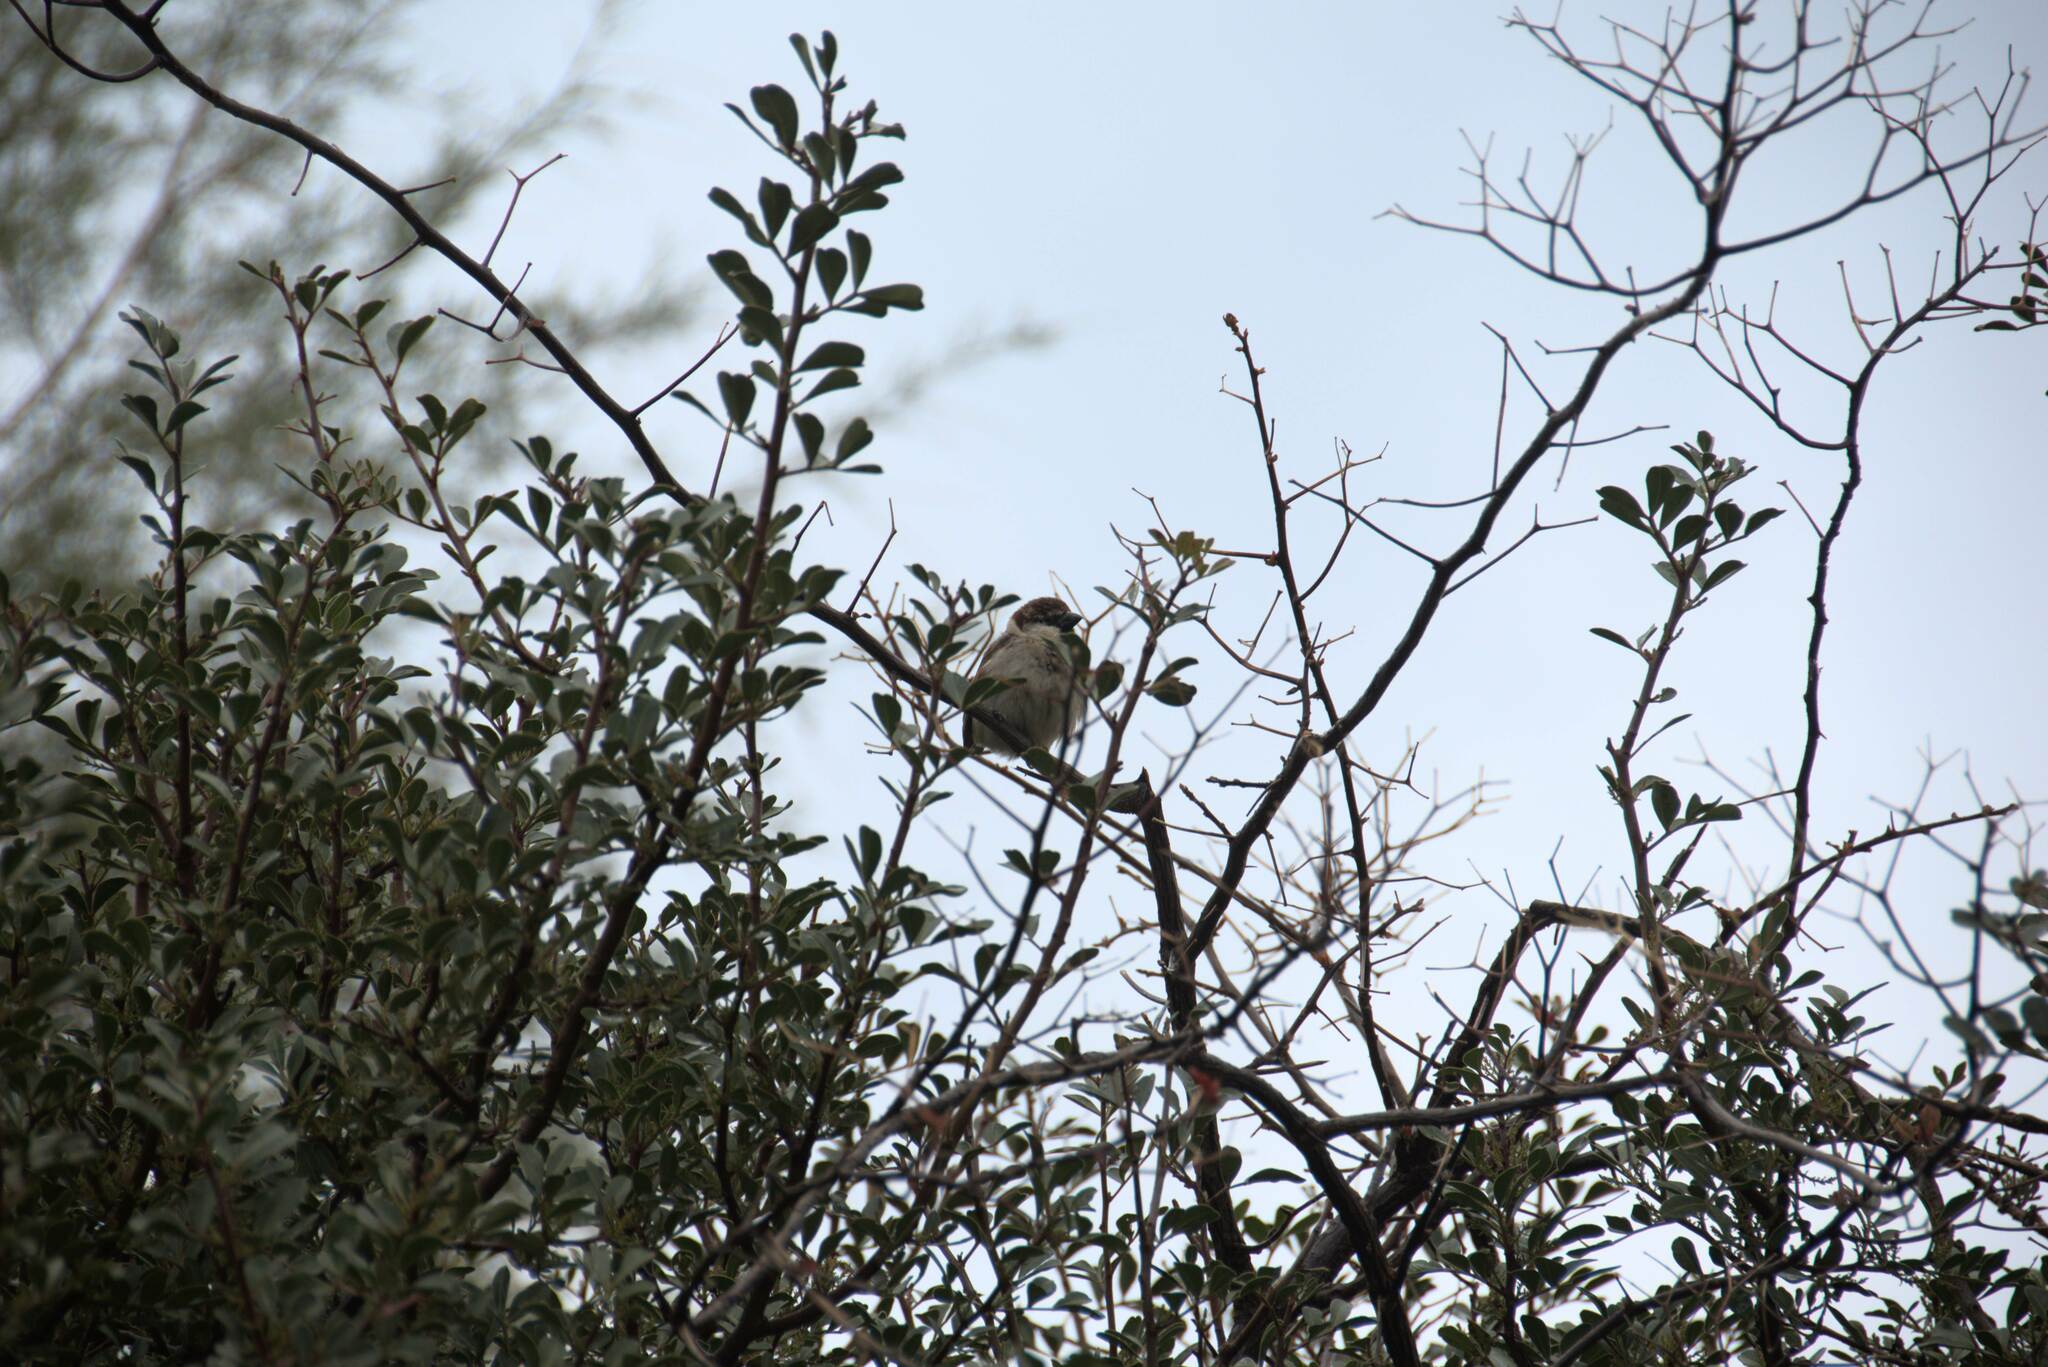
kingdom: Animalia
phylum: Chordata
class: Aves
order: Passeriformes
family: Passeridae
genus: Passer
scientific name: Passer italiae
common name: Italian sparrow
